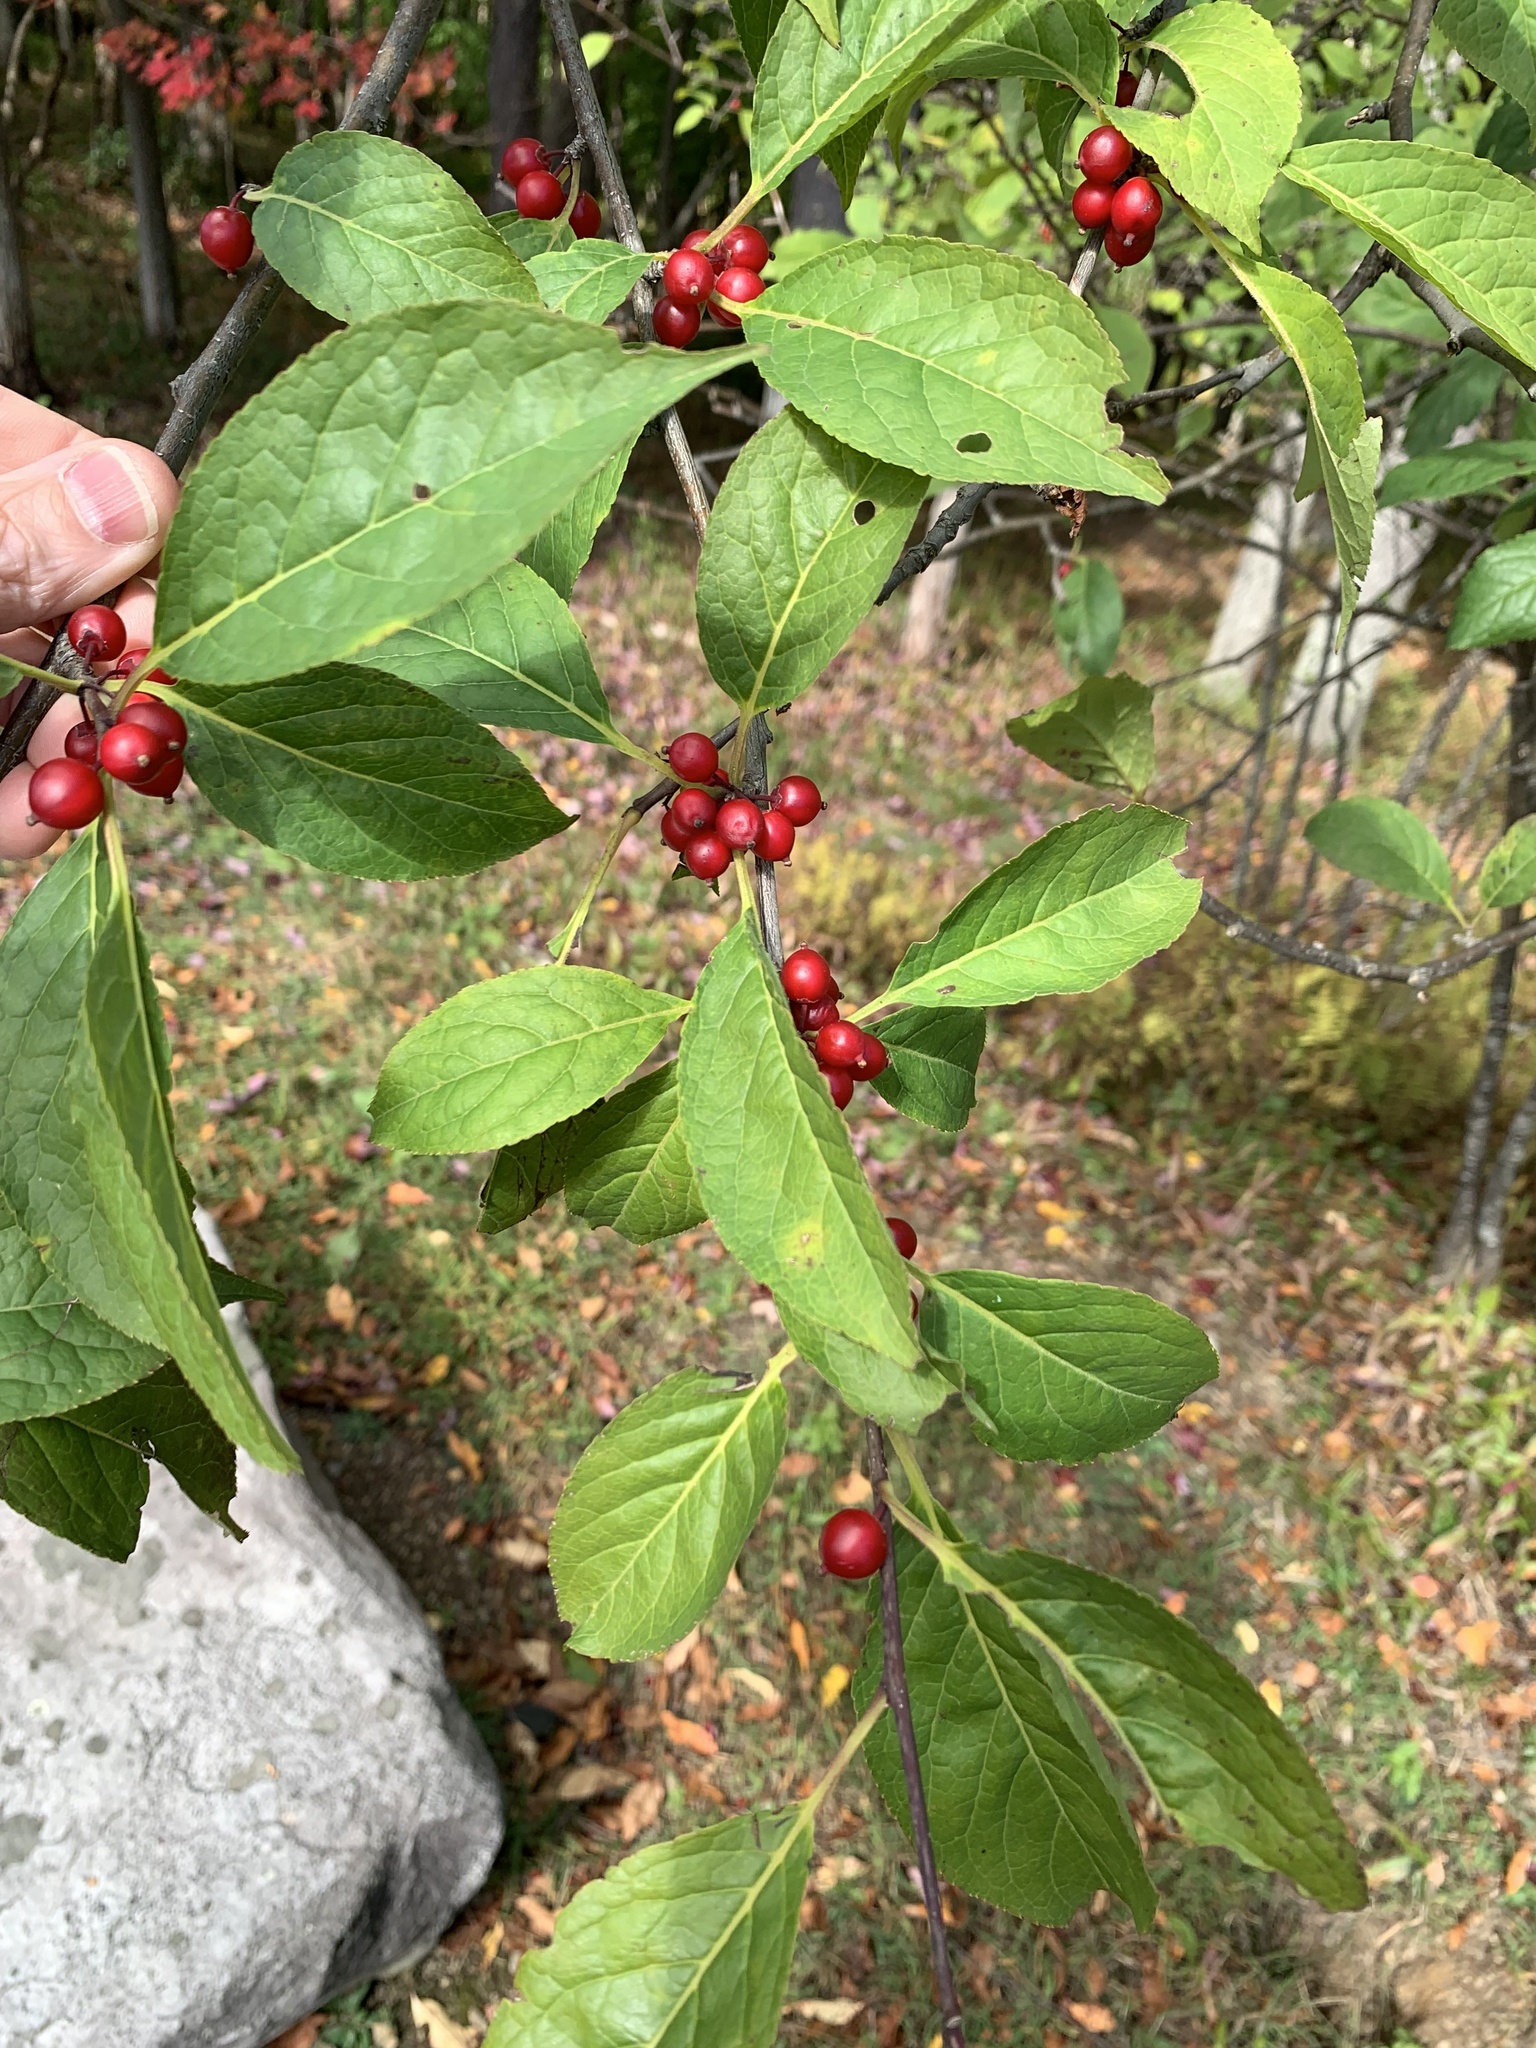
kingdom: Plantae
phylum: Tracheophyta
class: Magnoliopsida
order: Aquifoliales
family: Aquifoliaceae
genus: Ilex
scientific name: Ilex montana
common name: Mountain winterberry
